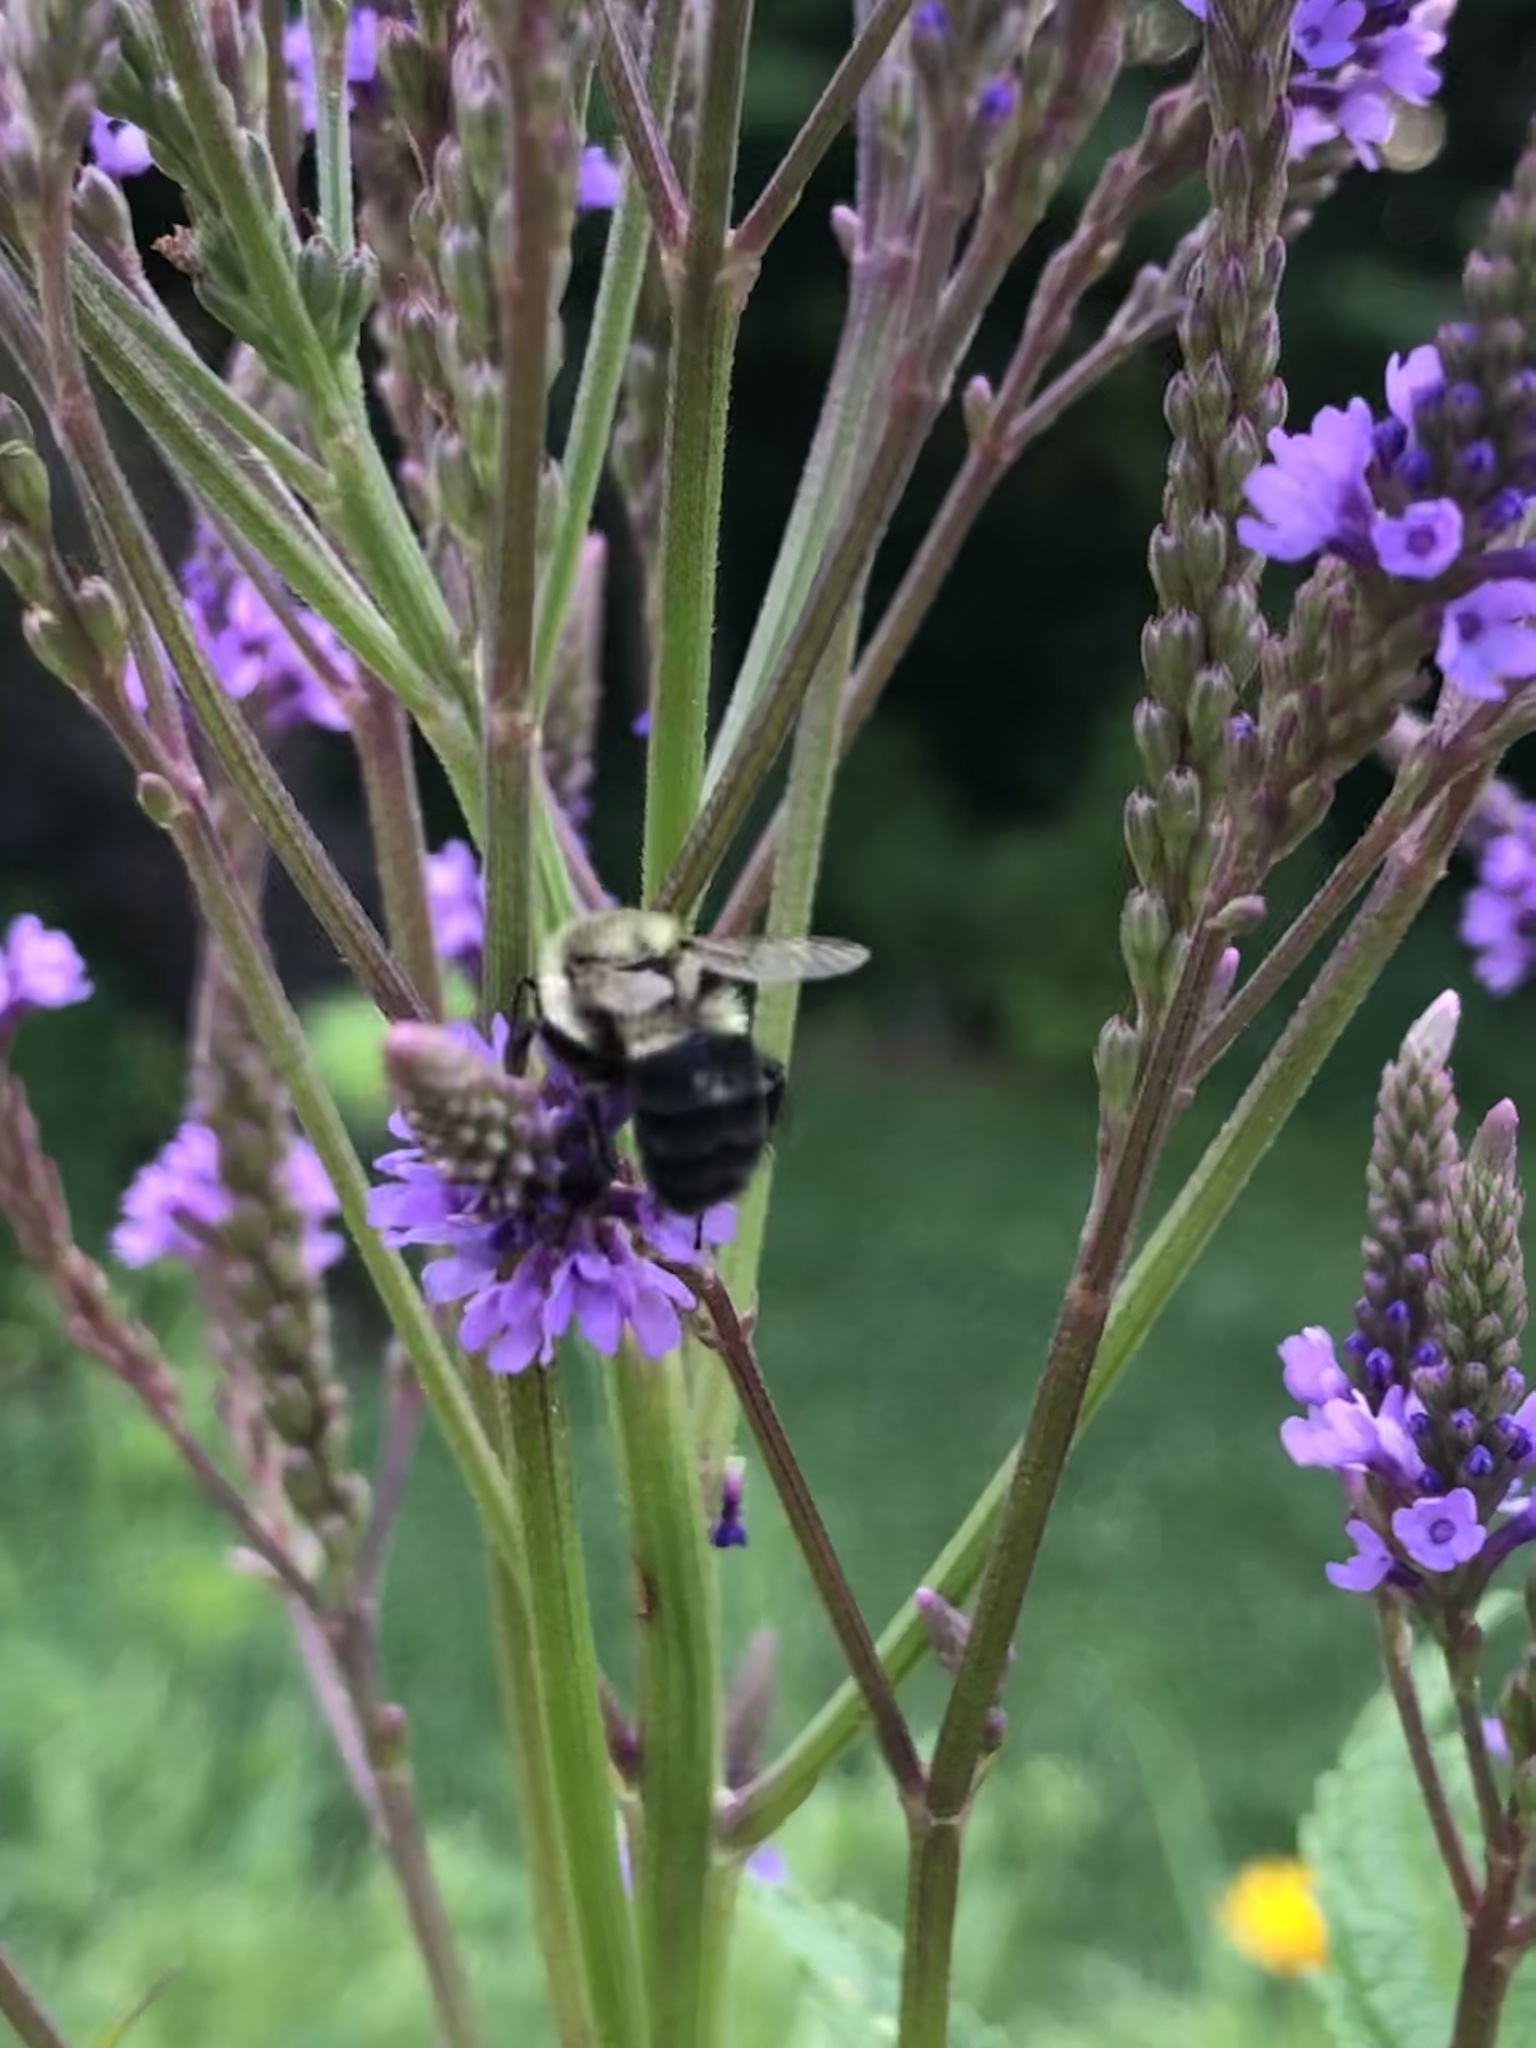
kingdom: Animalia
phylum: Arthropoda
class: Insecta
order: Hymenoptera
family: Apidae
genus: Bombus
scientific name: Bombus impatiens
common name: Common eastern bumble bee
